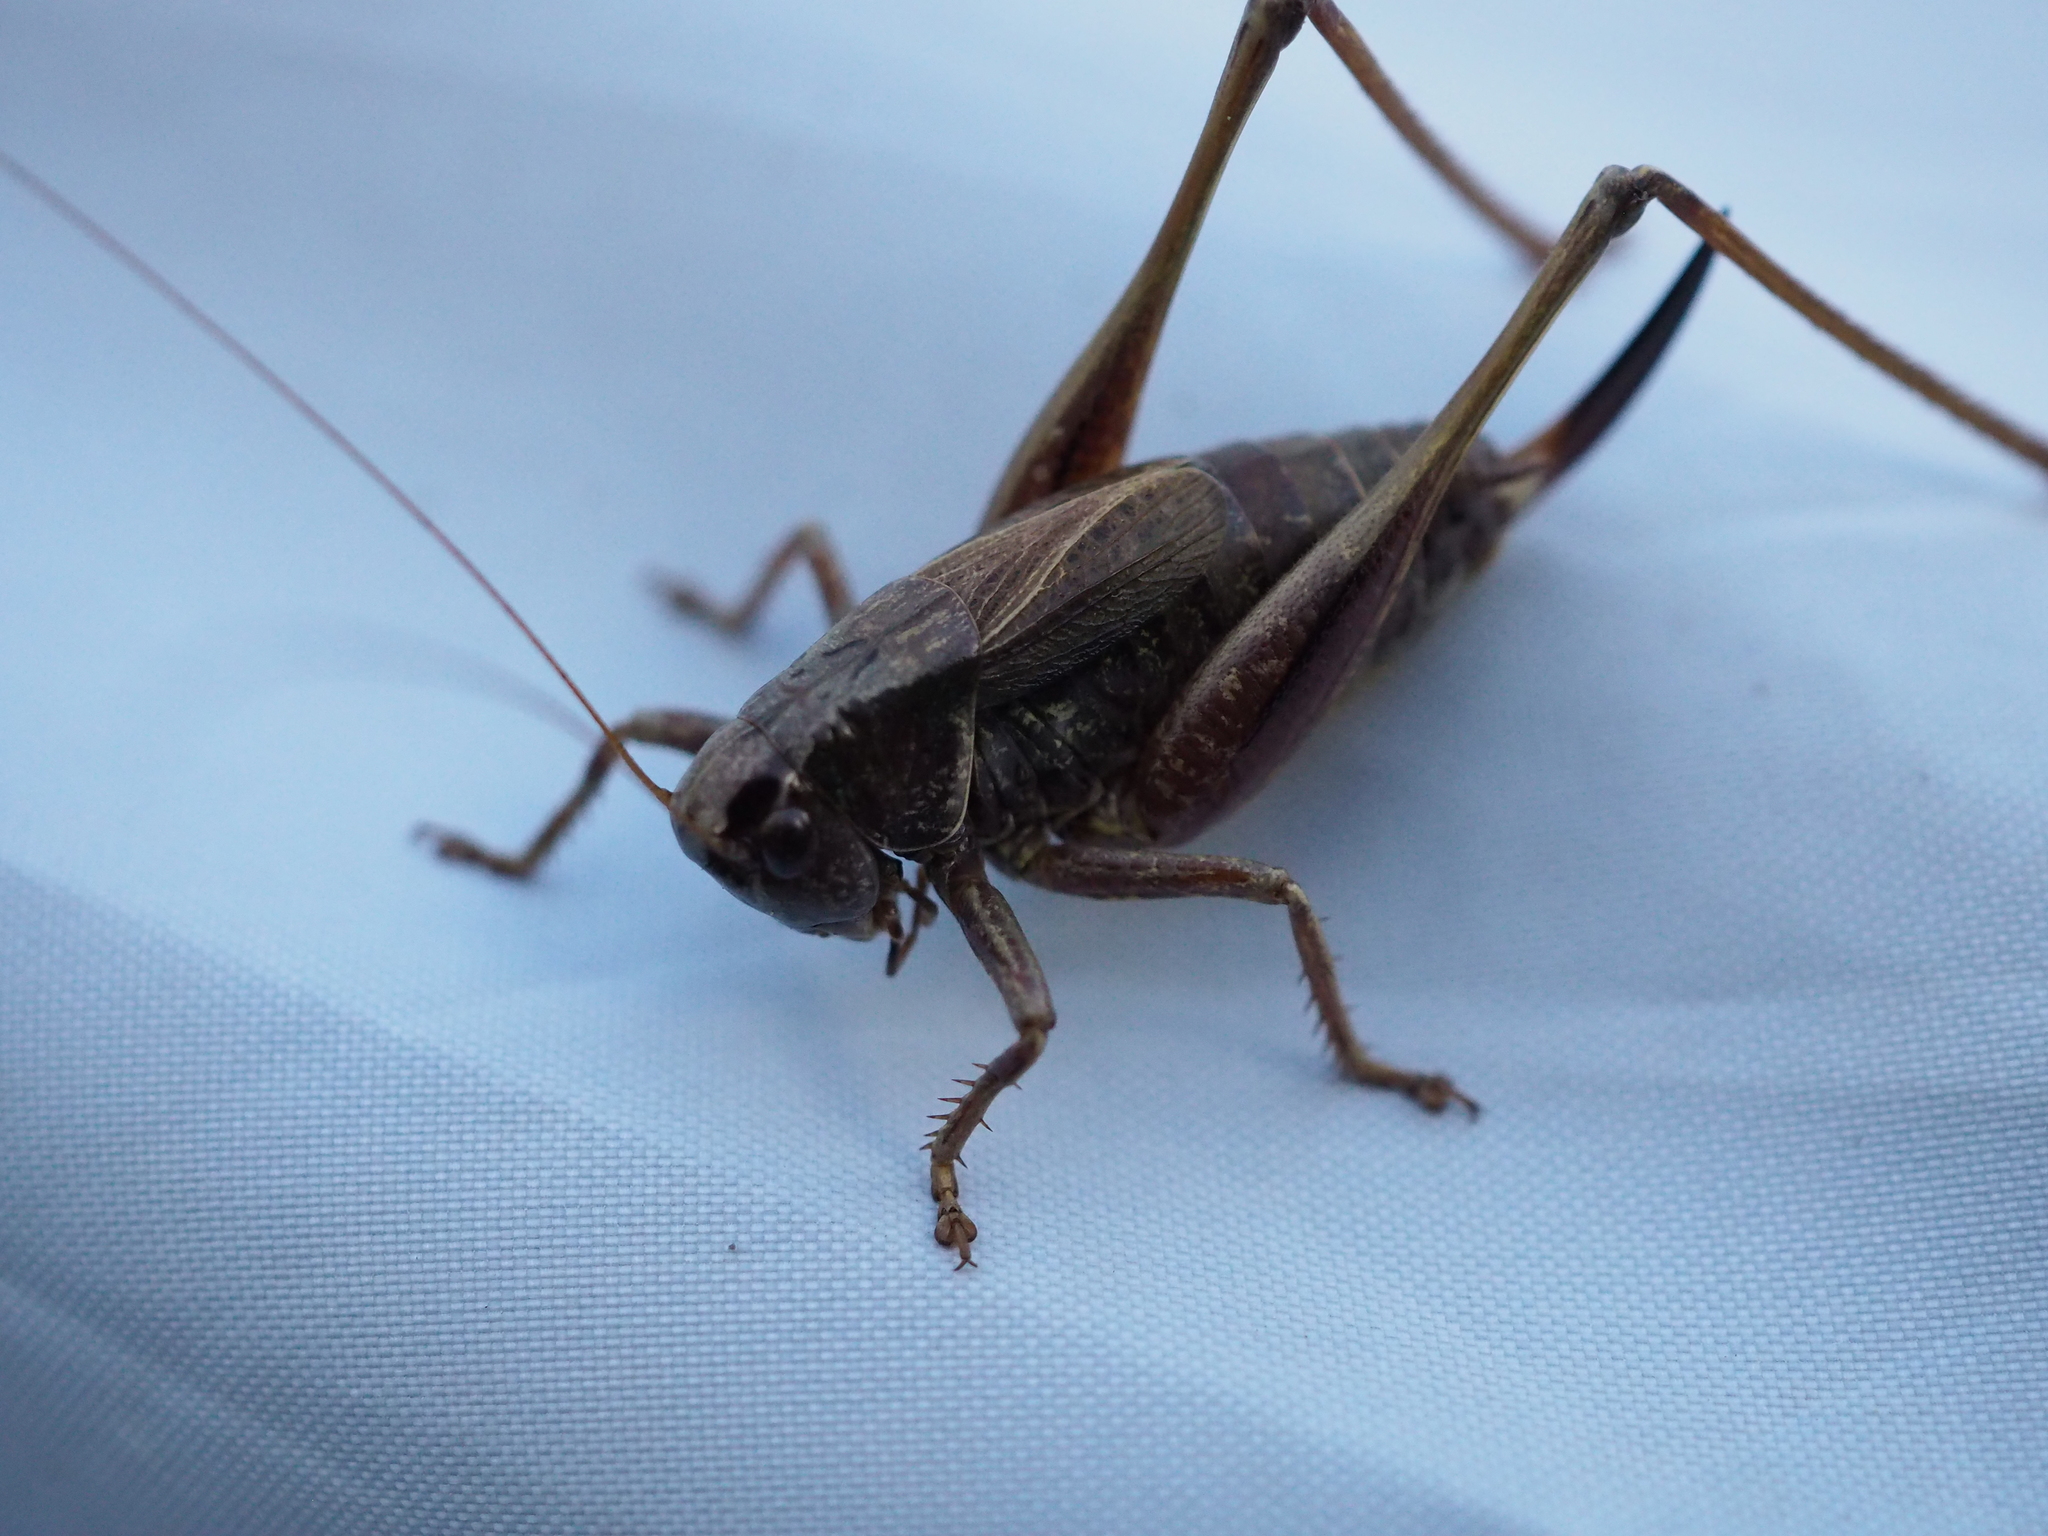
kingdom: Animalia
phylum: Arthropoda
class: Insecta
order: Orthoptera
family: Tettigoniidae
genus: Metrioptera
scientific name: Metrioptera saussuriana
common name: Purple meadow bush-cricket
